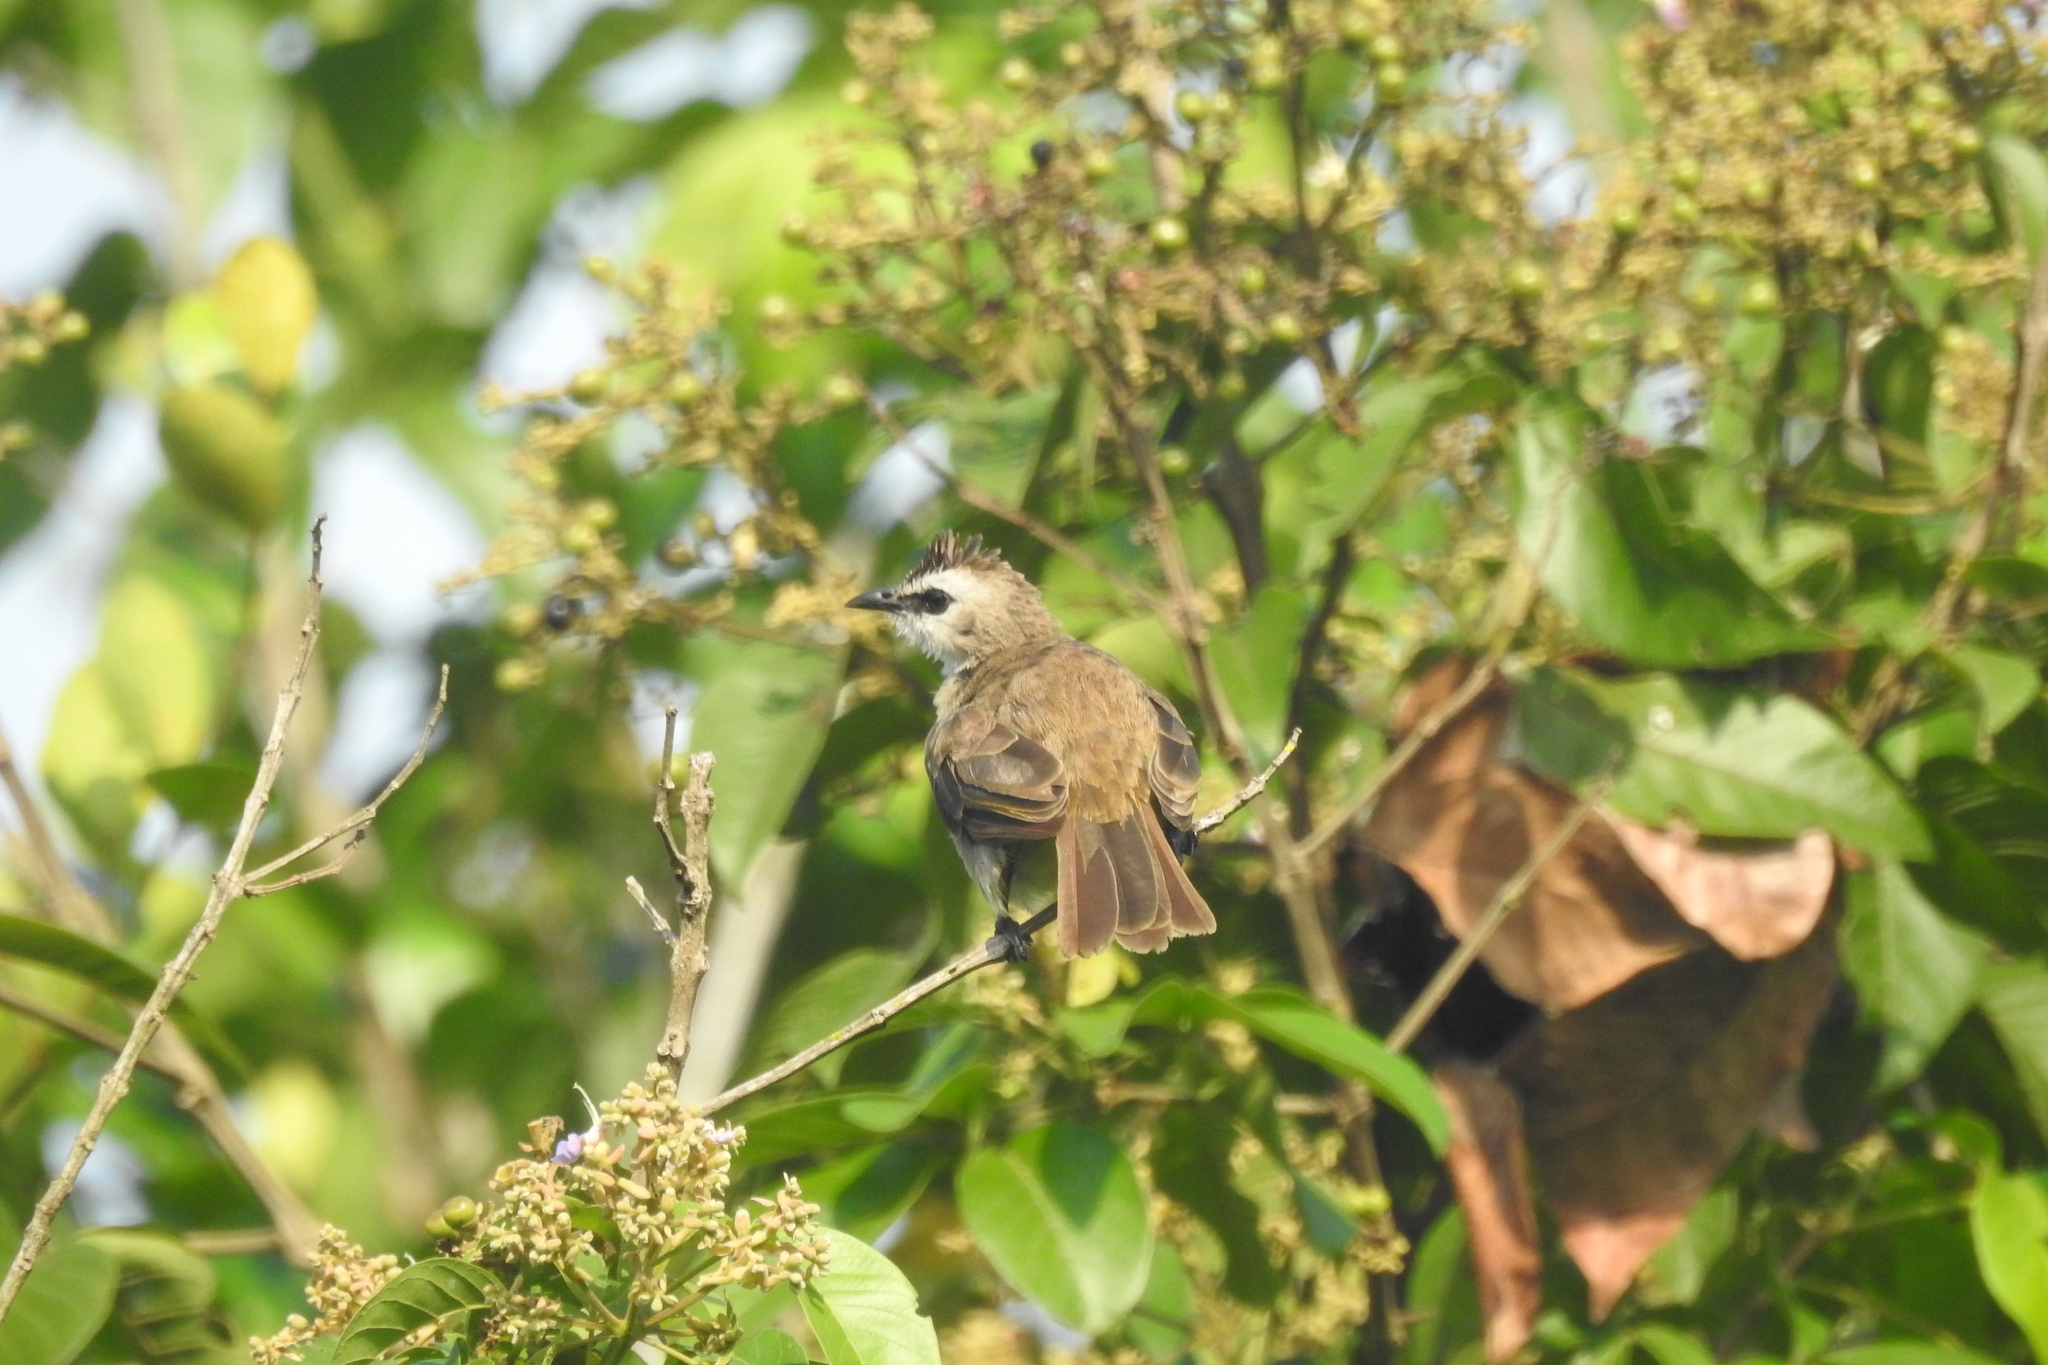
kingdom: Animalia
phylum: Chordata
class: Aves
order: Passeriformes
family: Pycnonotidae
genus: Pycnonotus
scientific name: Pycnonotus goiavier
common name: Yellow-vented bulbul
